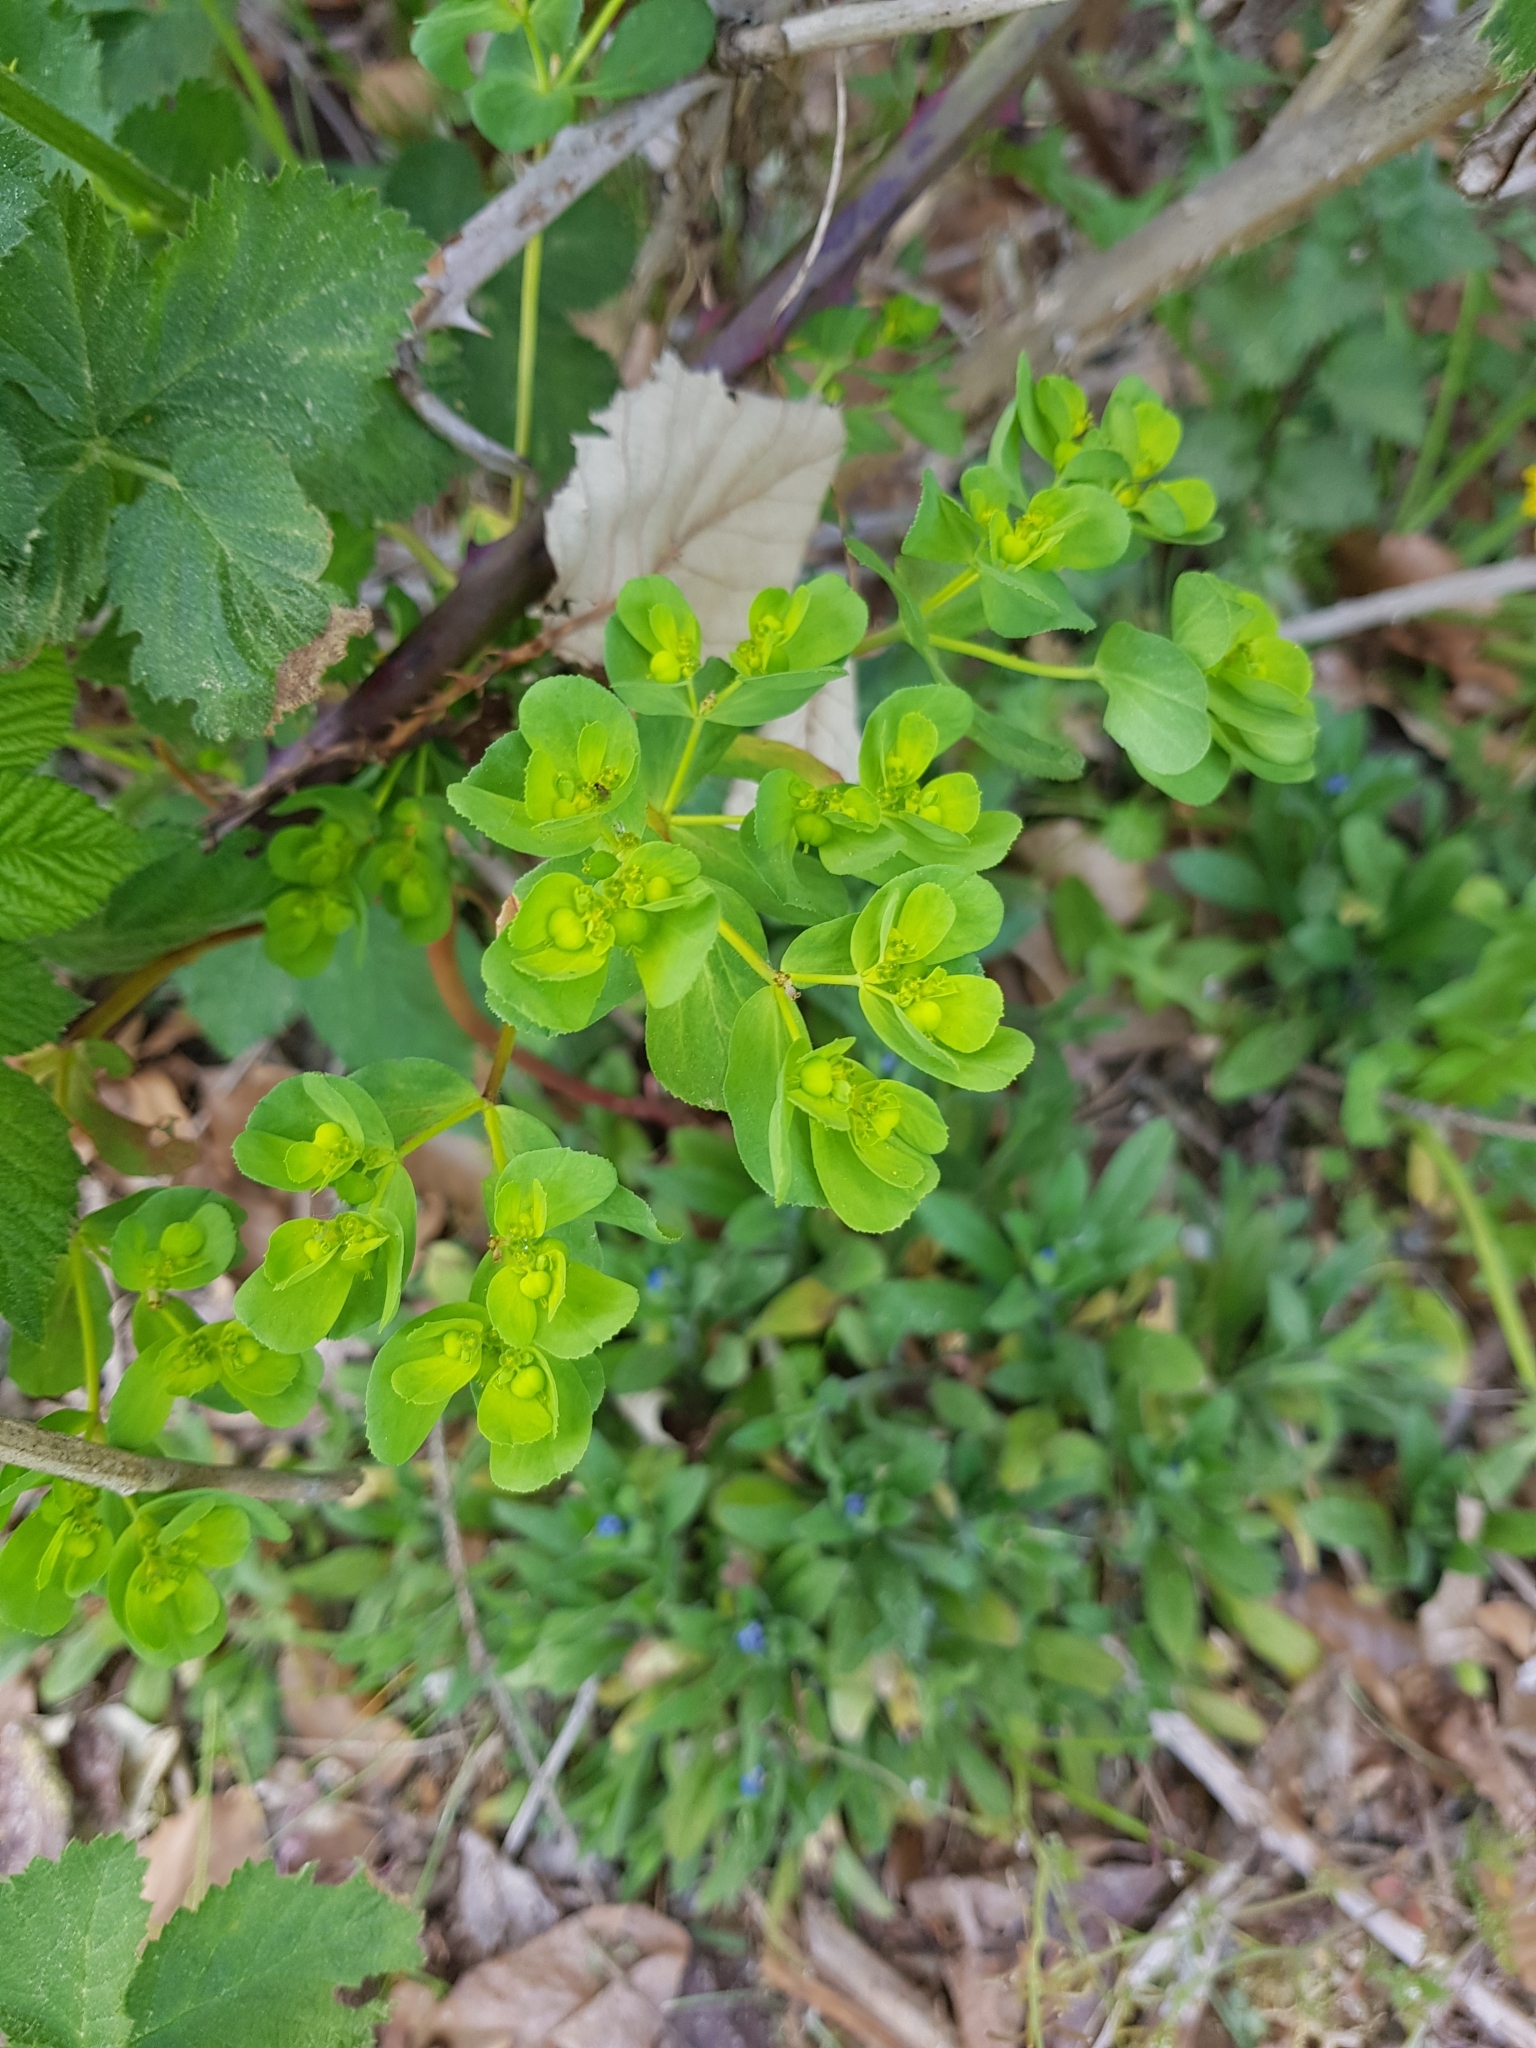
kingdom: Plantae
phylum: Tracheophyta
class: Magnoliopsida
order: Malpighiales
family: Euphorbiaceae
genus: Euphorbia
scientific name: Euphorbia helioscopia
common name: Sun spurge
